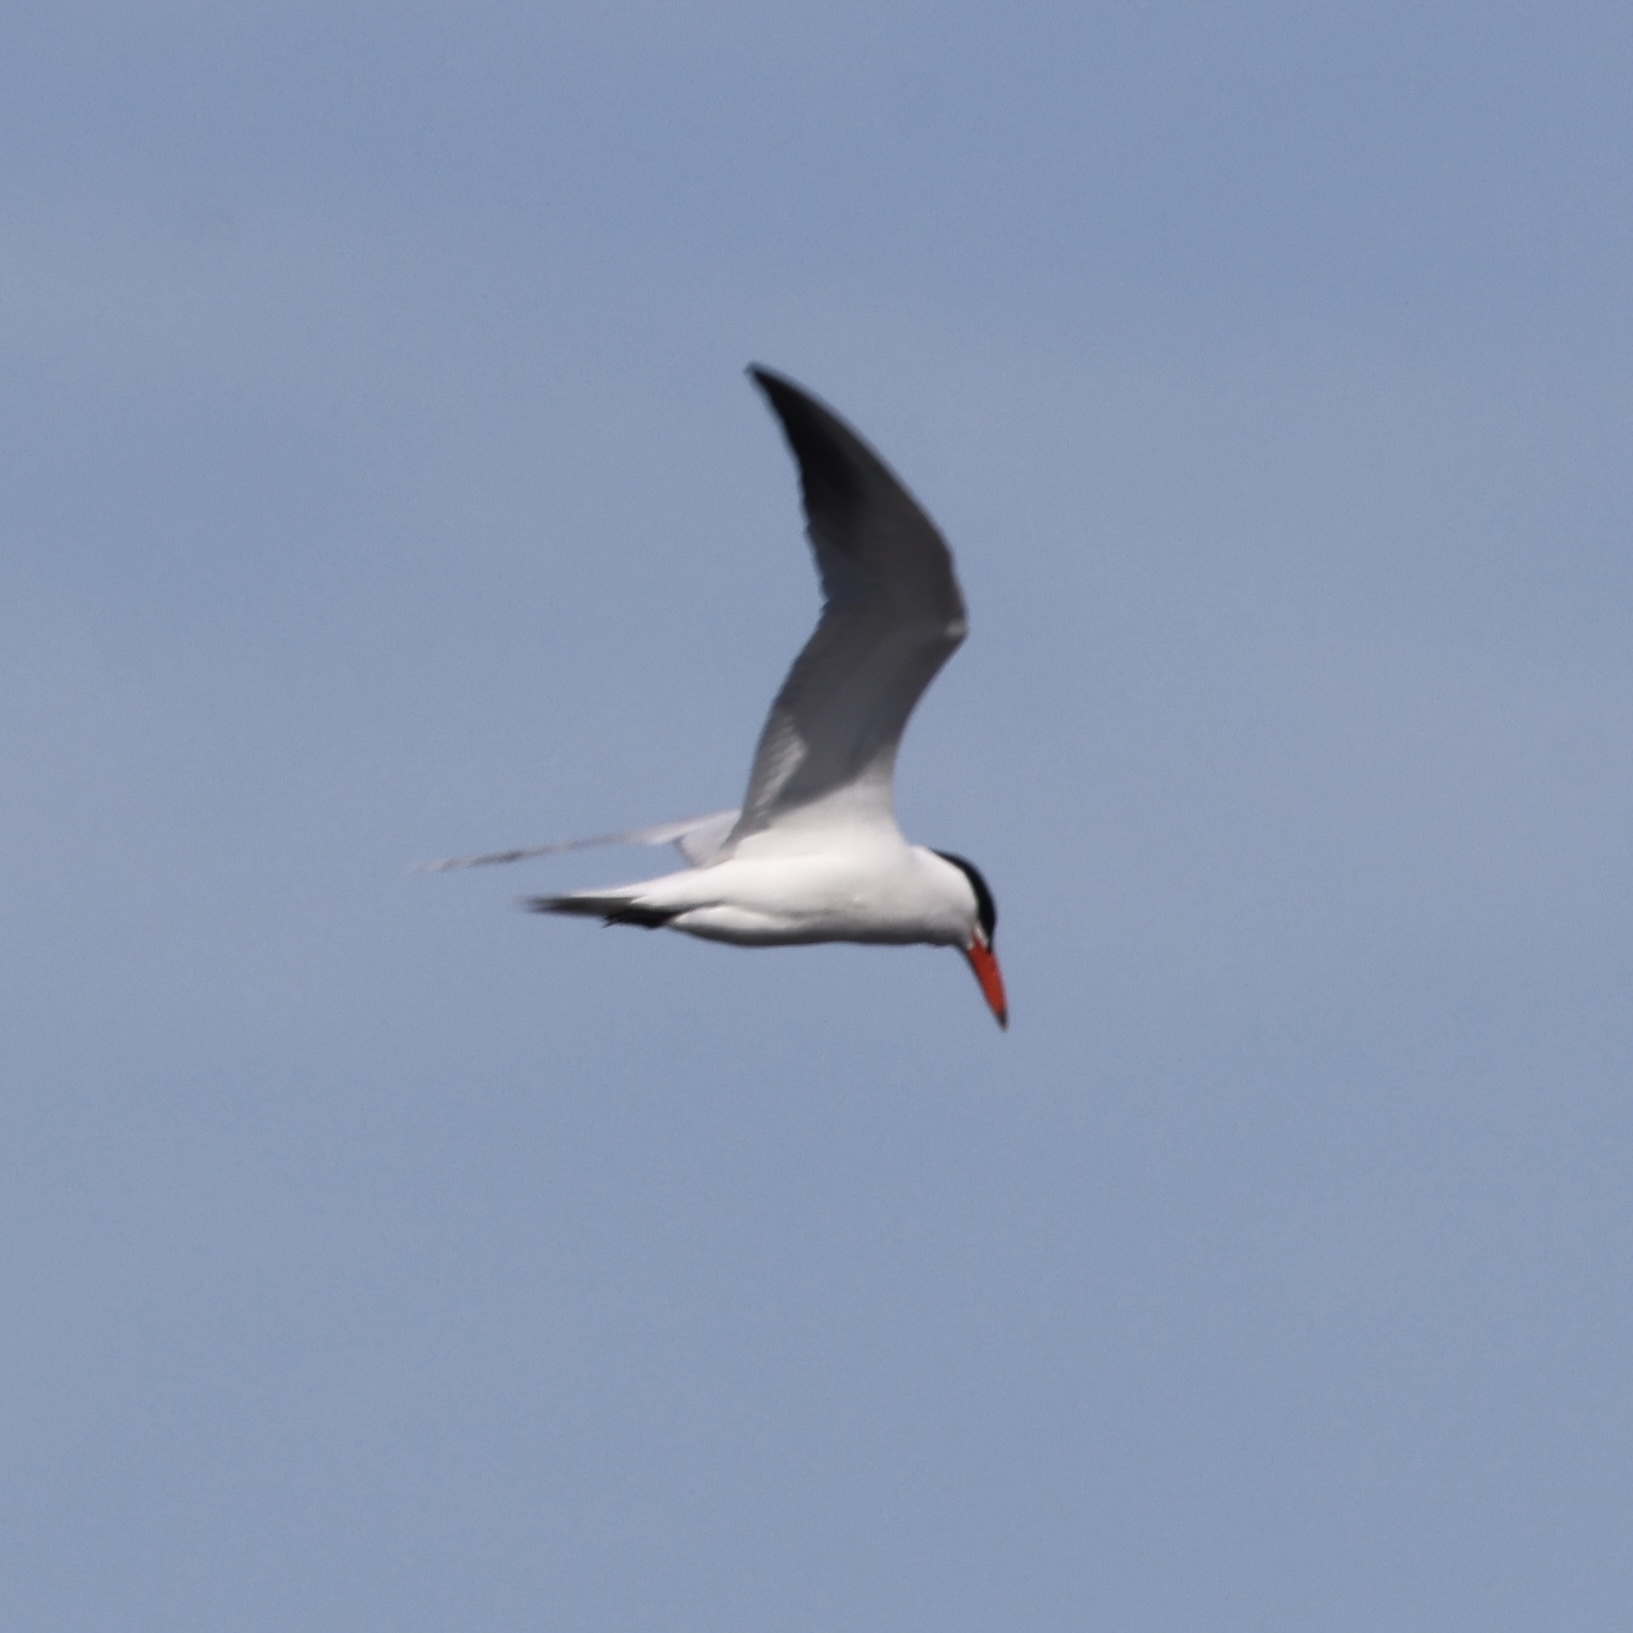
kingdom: Animalia
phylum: Chordata
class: Aves
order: Charadriiformes
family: Laridae
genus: Hydroprogne
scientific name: Hydroprogne caspia
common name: Caspian tern
